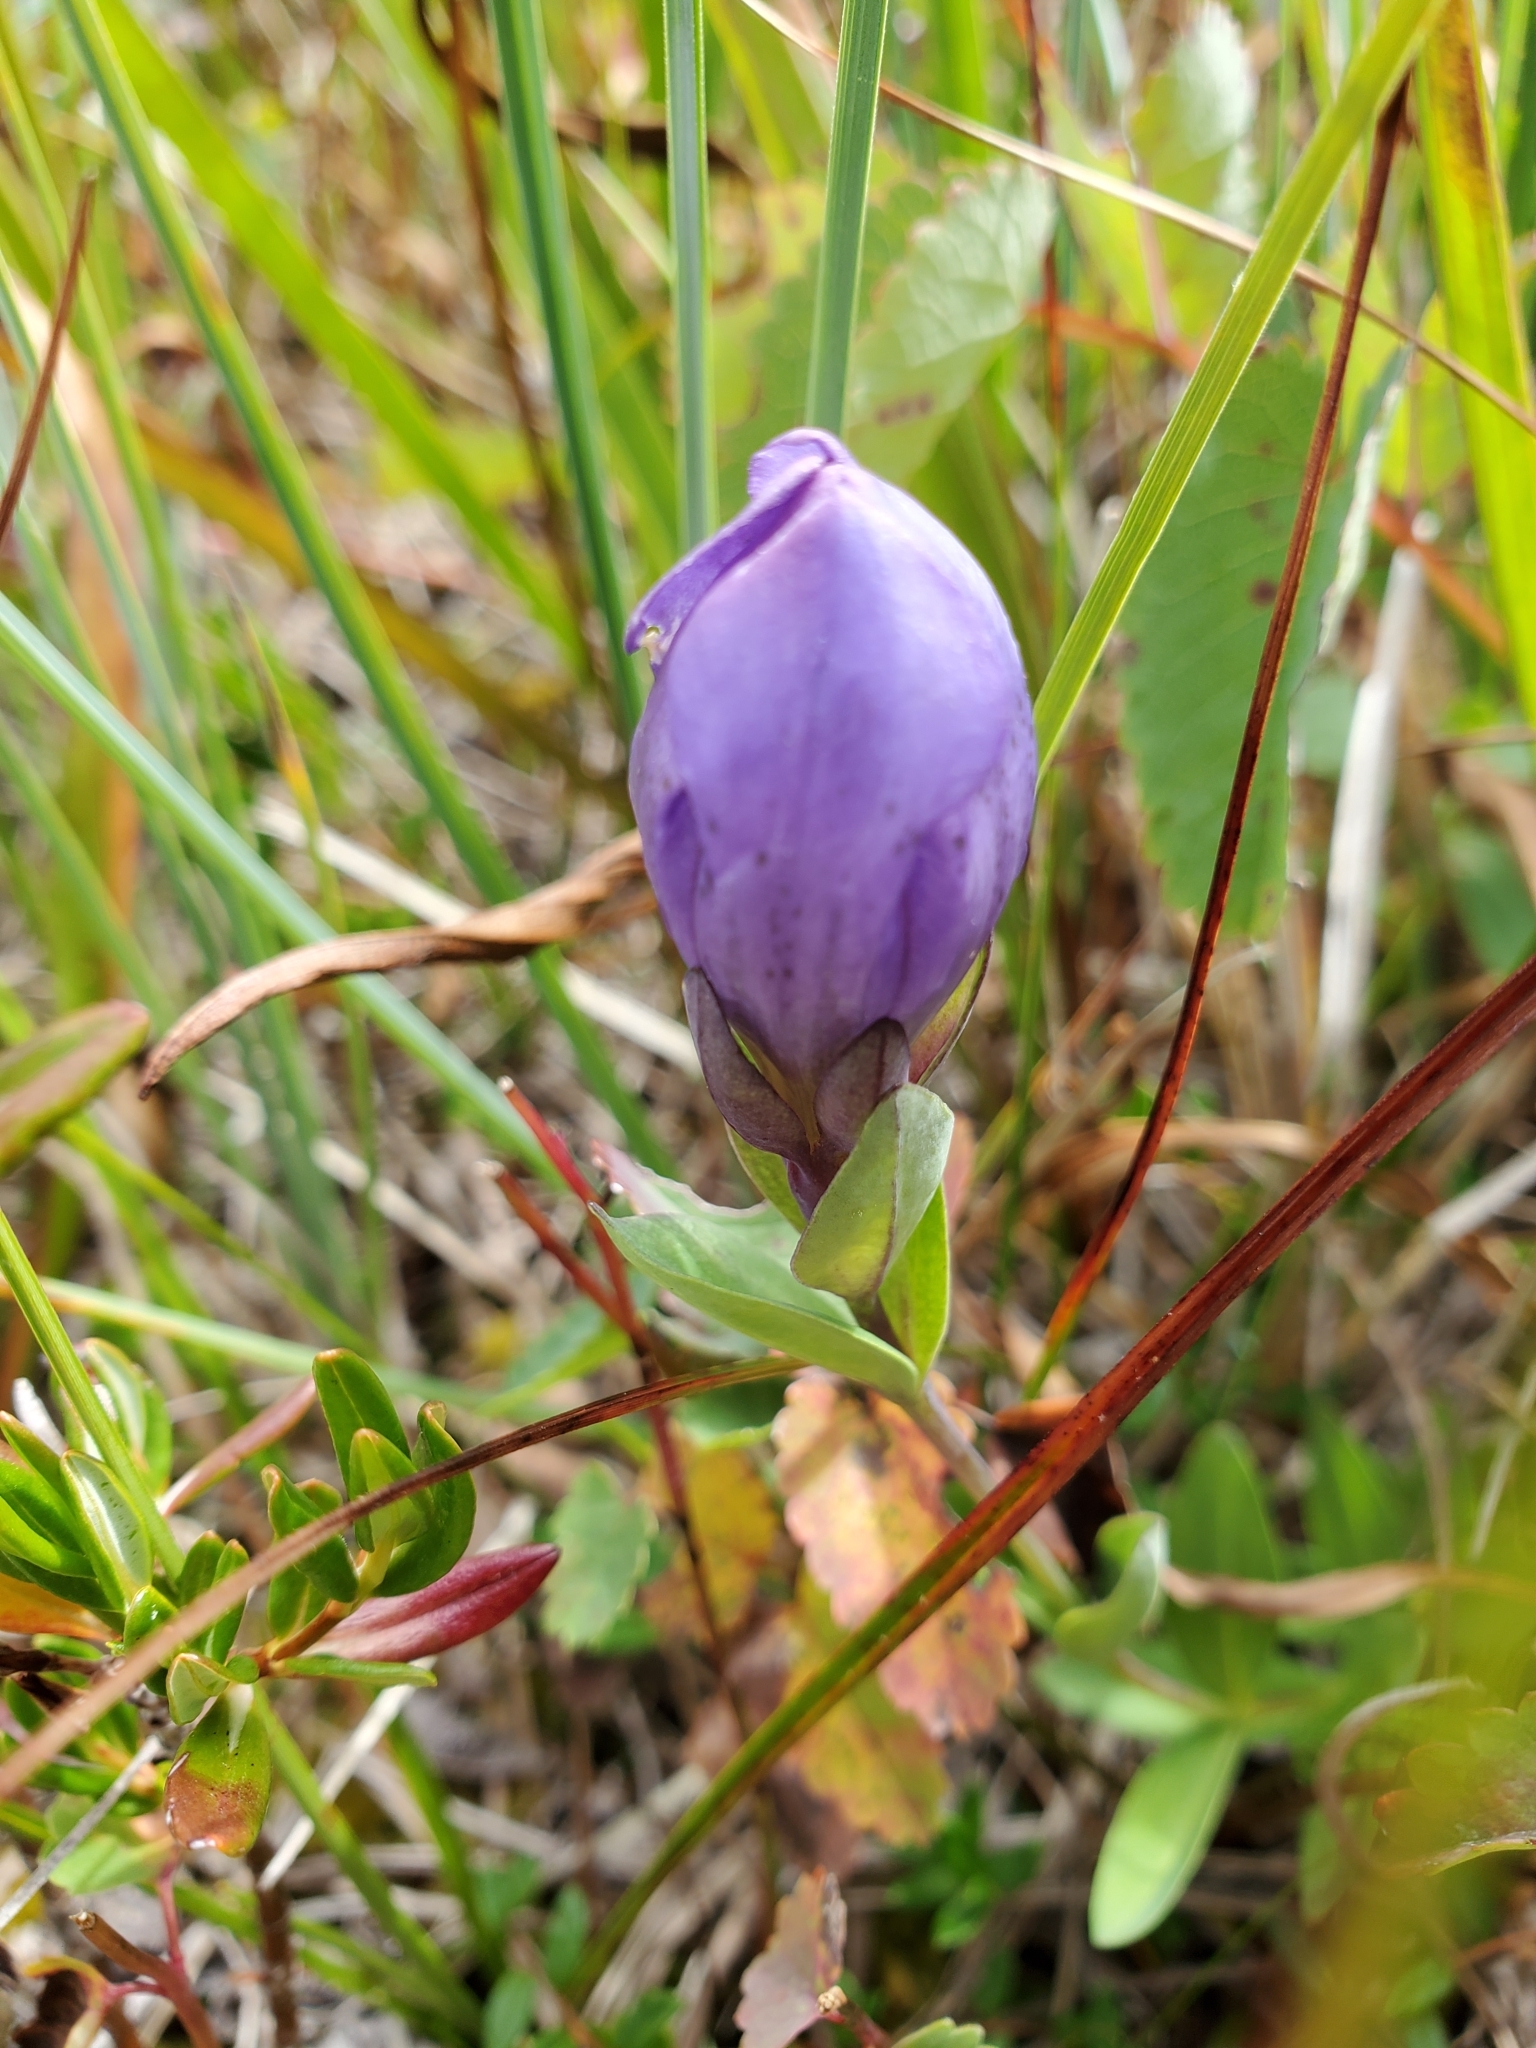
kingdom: Plantae
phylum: Tracheophyta
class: Magnoliopsida
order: Gentianales
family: Gentianaceae
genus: Gentiana
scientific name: Gentiana sceptrum
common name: Pacific gentian
